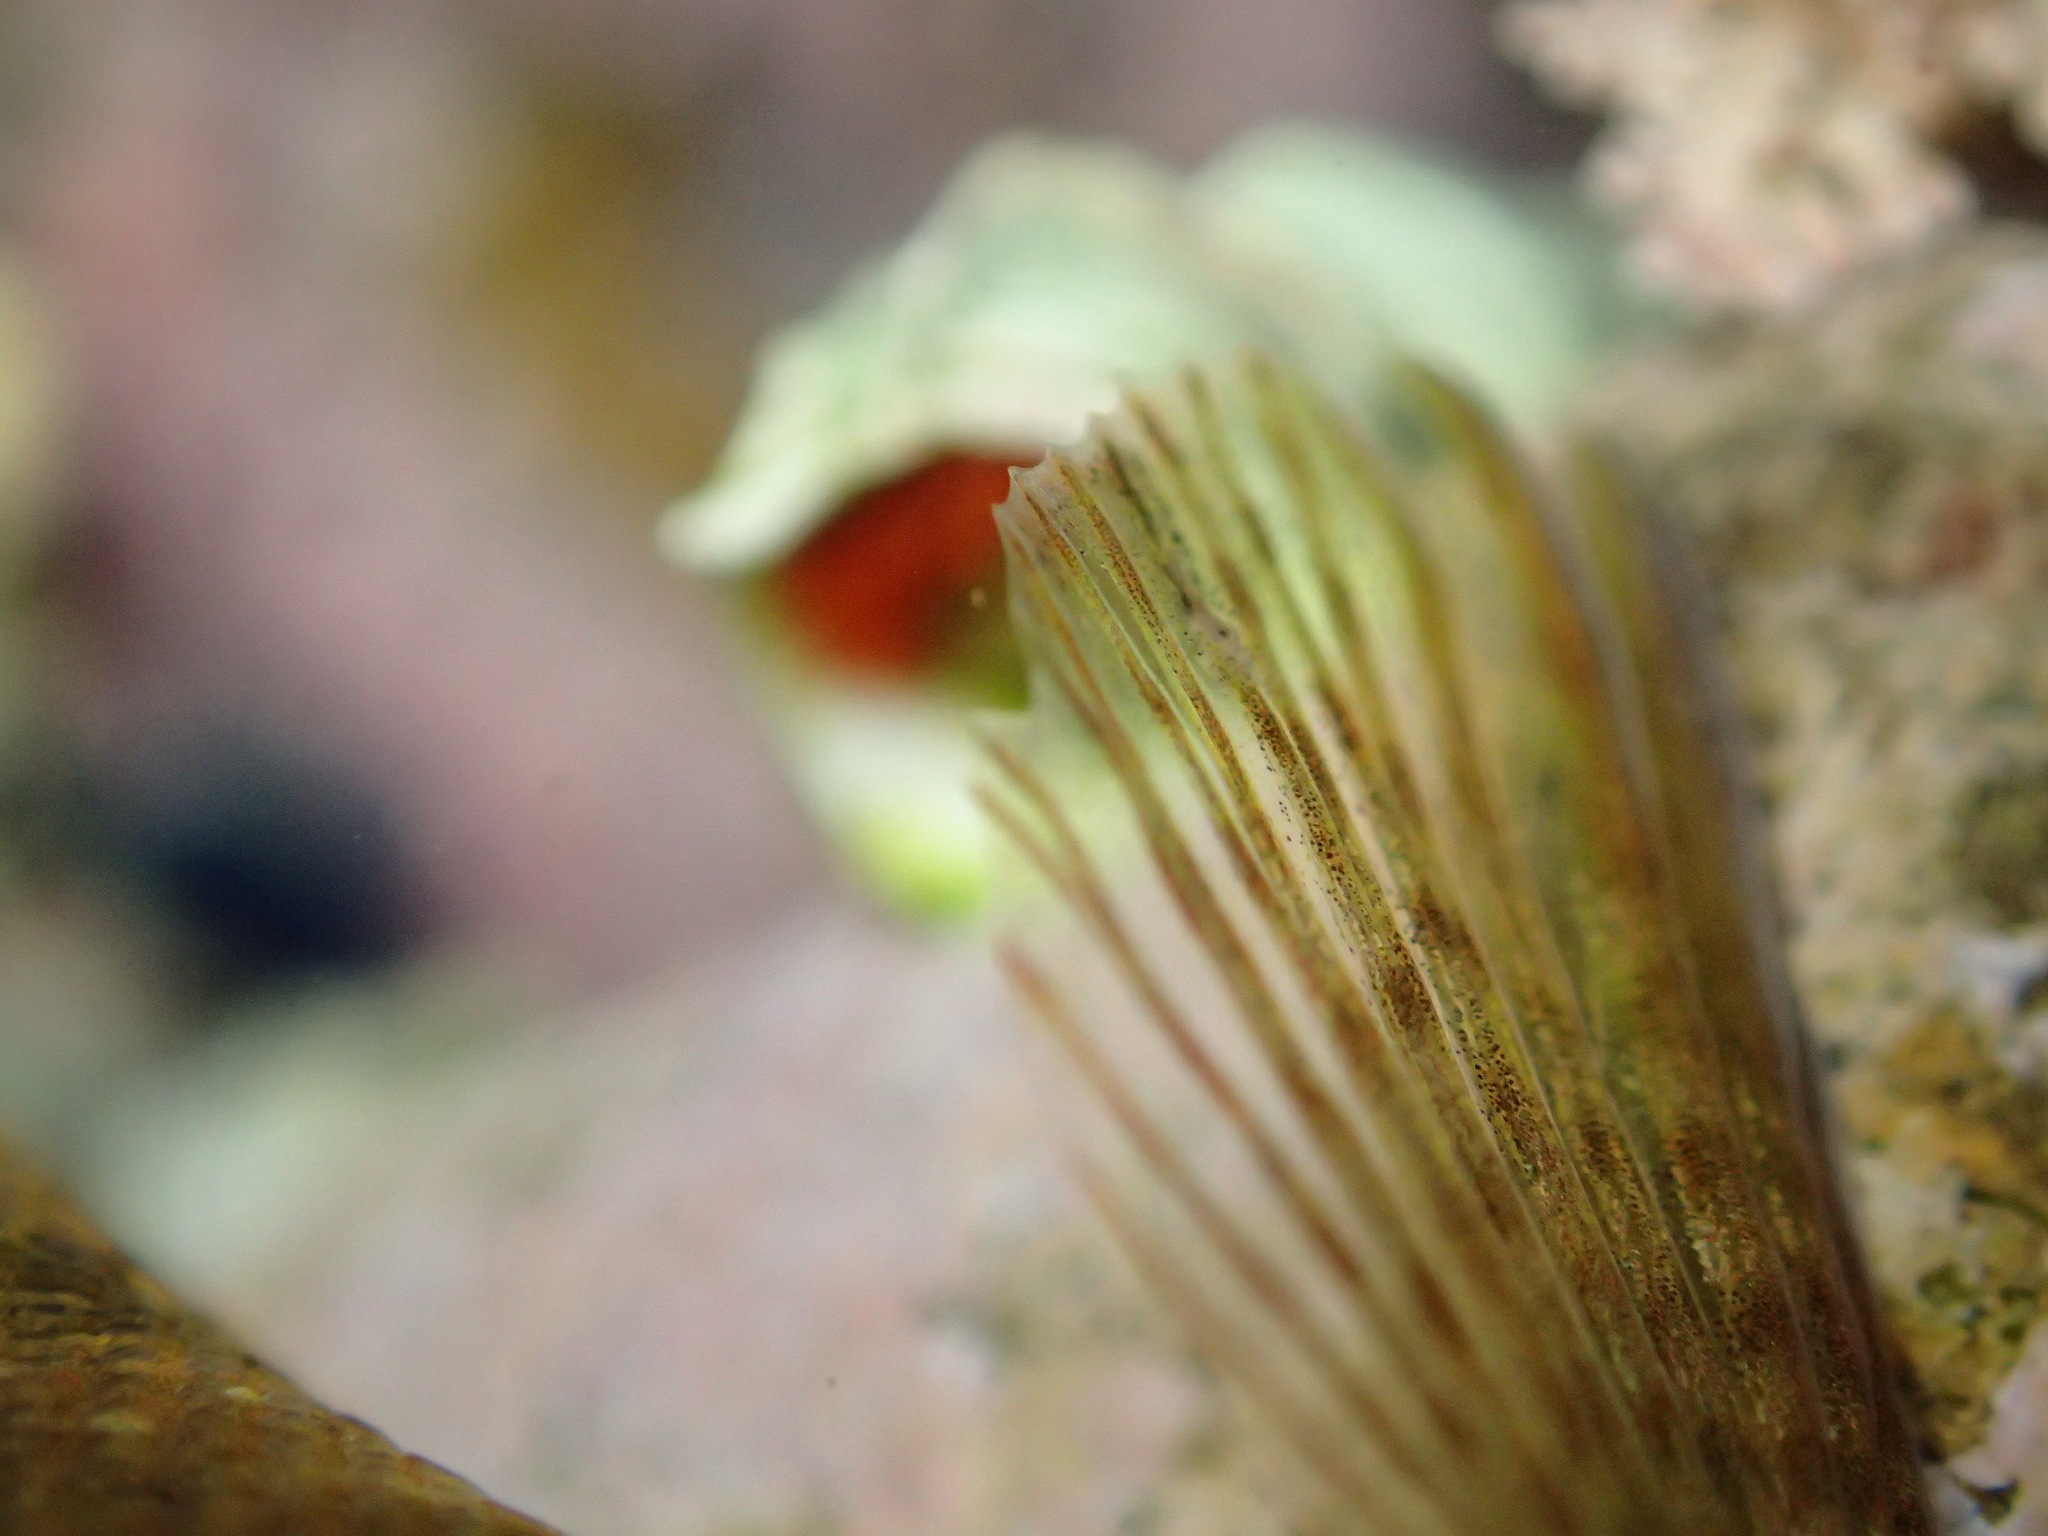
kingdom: Animalia
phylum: Chordata
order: Perciformes
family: Tripterygiidae
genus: Bellapiscis
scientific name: Bellapiscis
